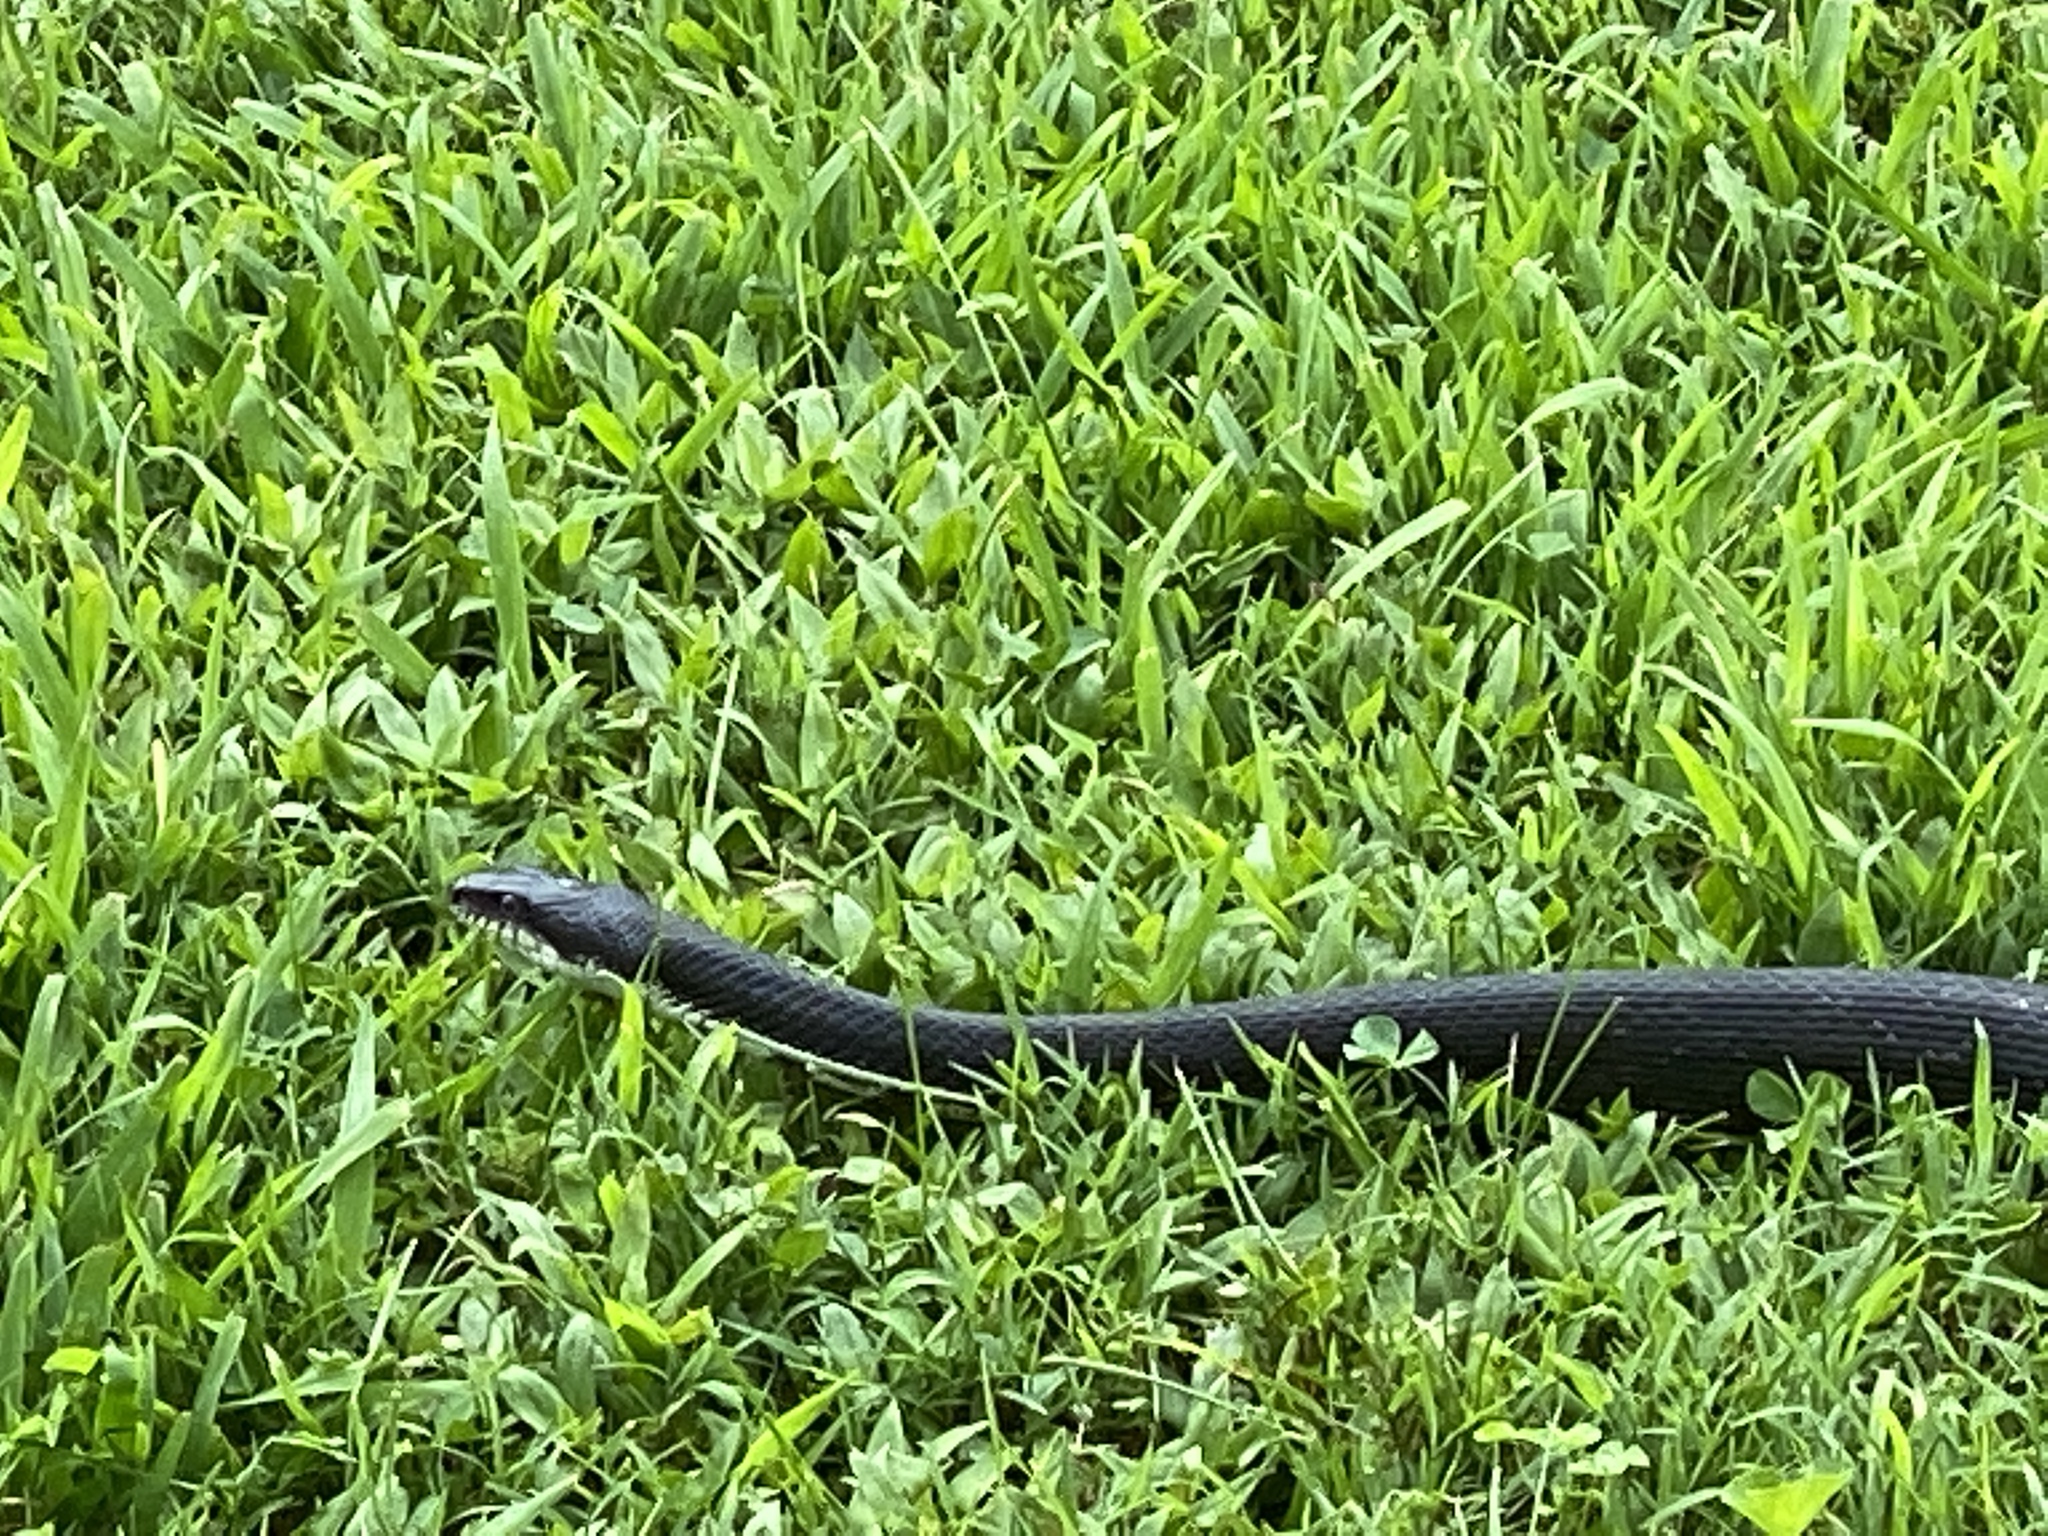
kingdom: Animalia
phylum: Chordata
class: Squamata
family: Colubridae
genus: Pantherophis
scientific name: Pantherophis alleghaniensis
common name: Eastern rat snake
